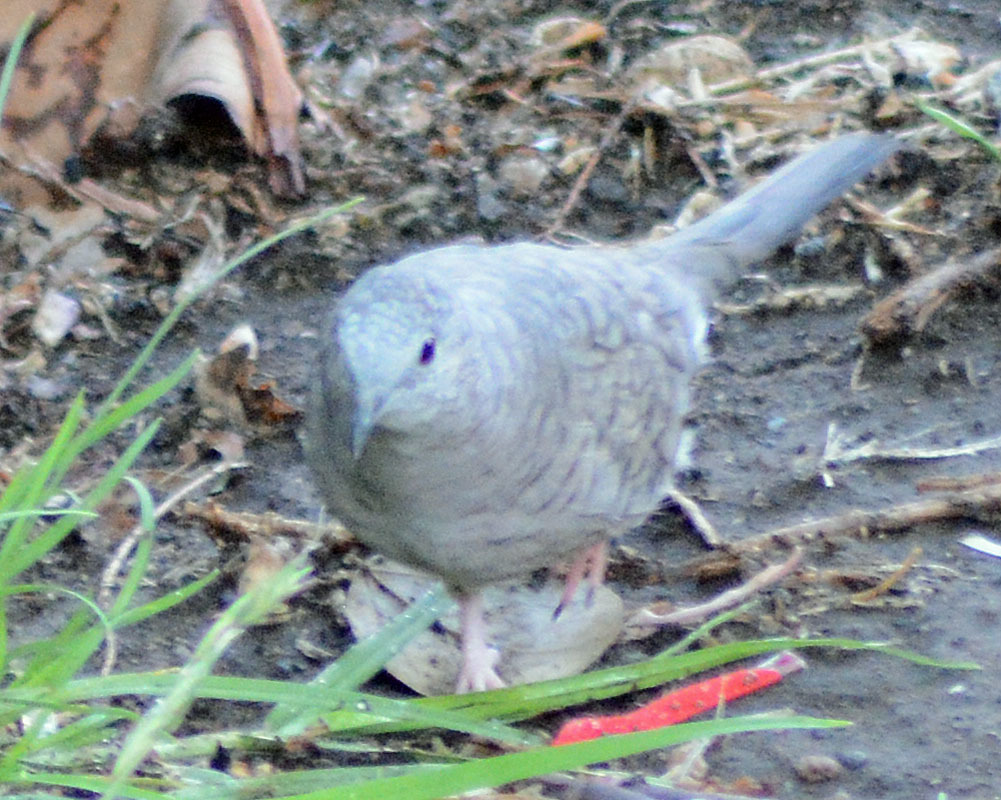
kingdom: Animalia
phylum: Chordata
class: Aves
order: Columbiformes
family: Columbidae
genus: Columbina
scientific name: Columbina inca
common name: Inca dove
